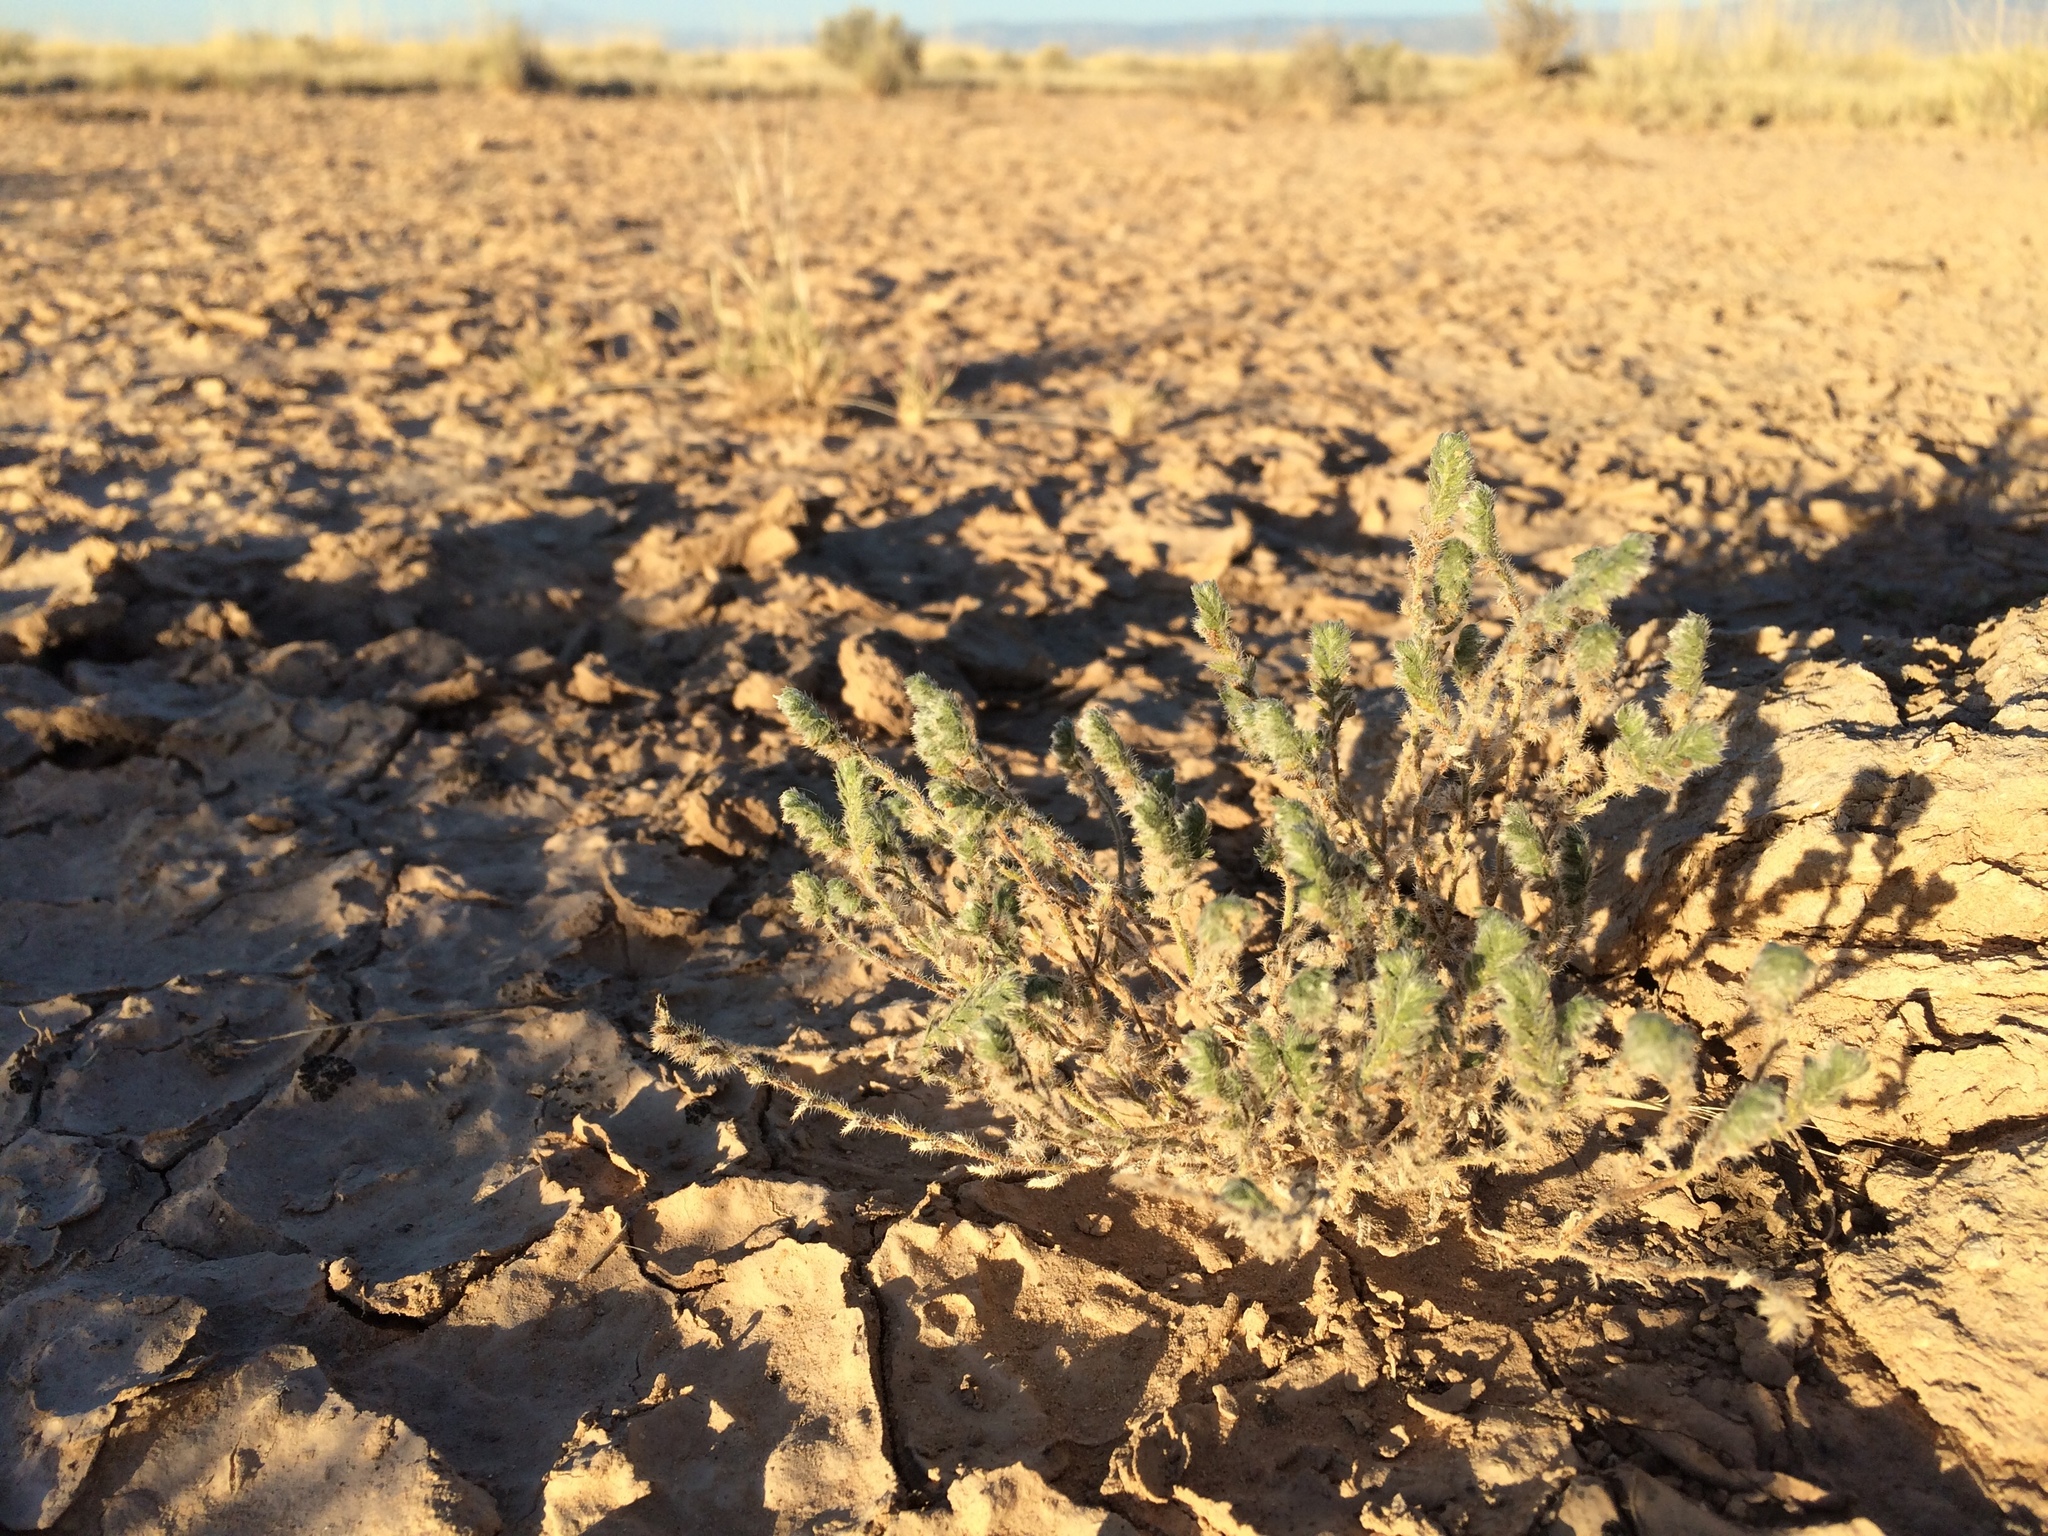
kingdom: Plantae
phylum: Tracheophyta
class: Magnoliopsida
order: Boraginales
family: Boraginaceae
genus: Johnstonella
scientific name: Johnstonella albida
